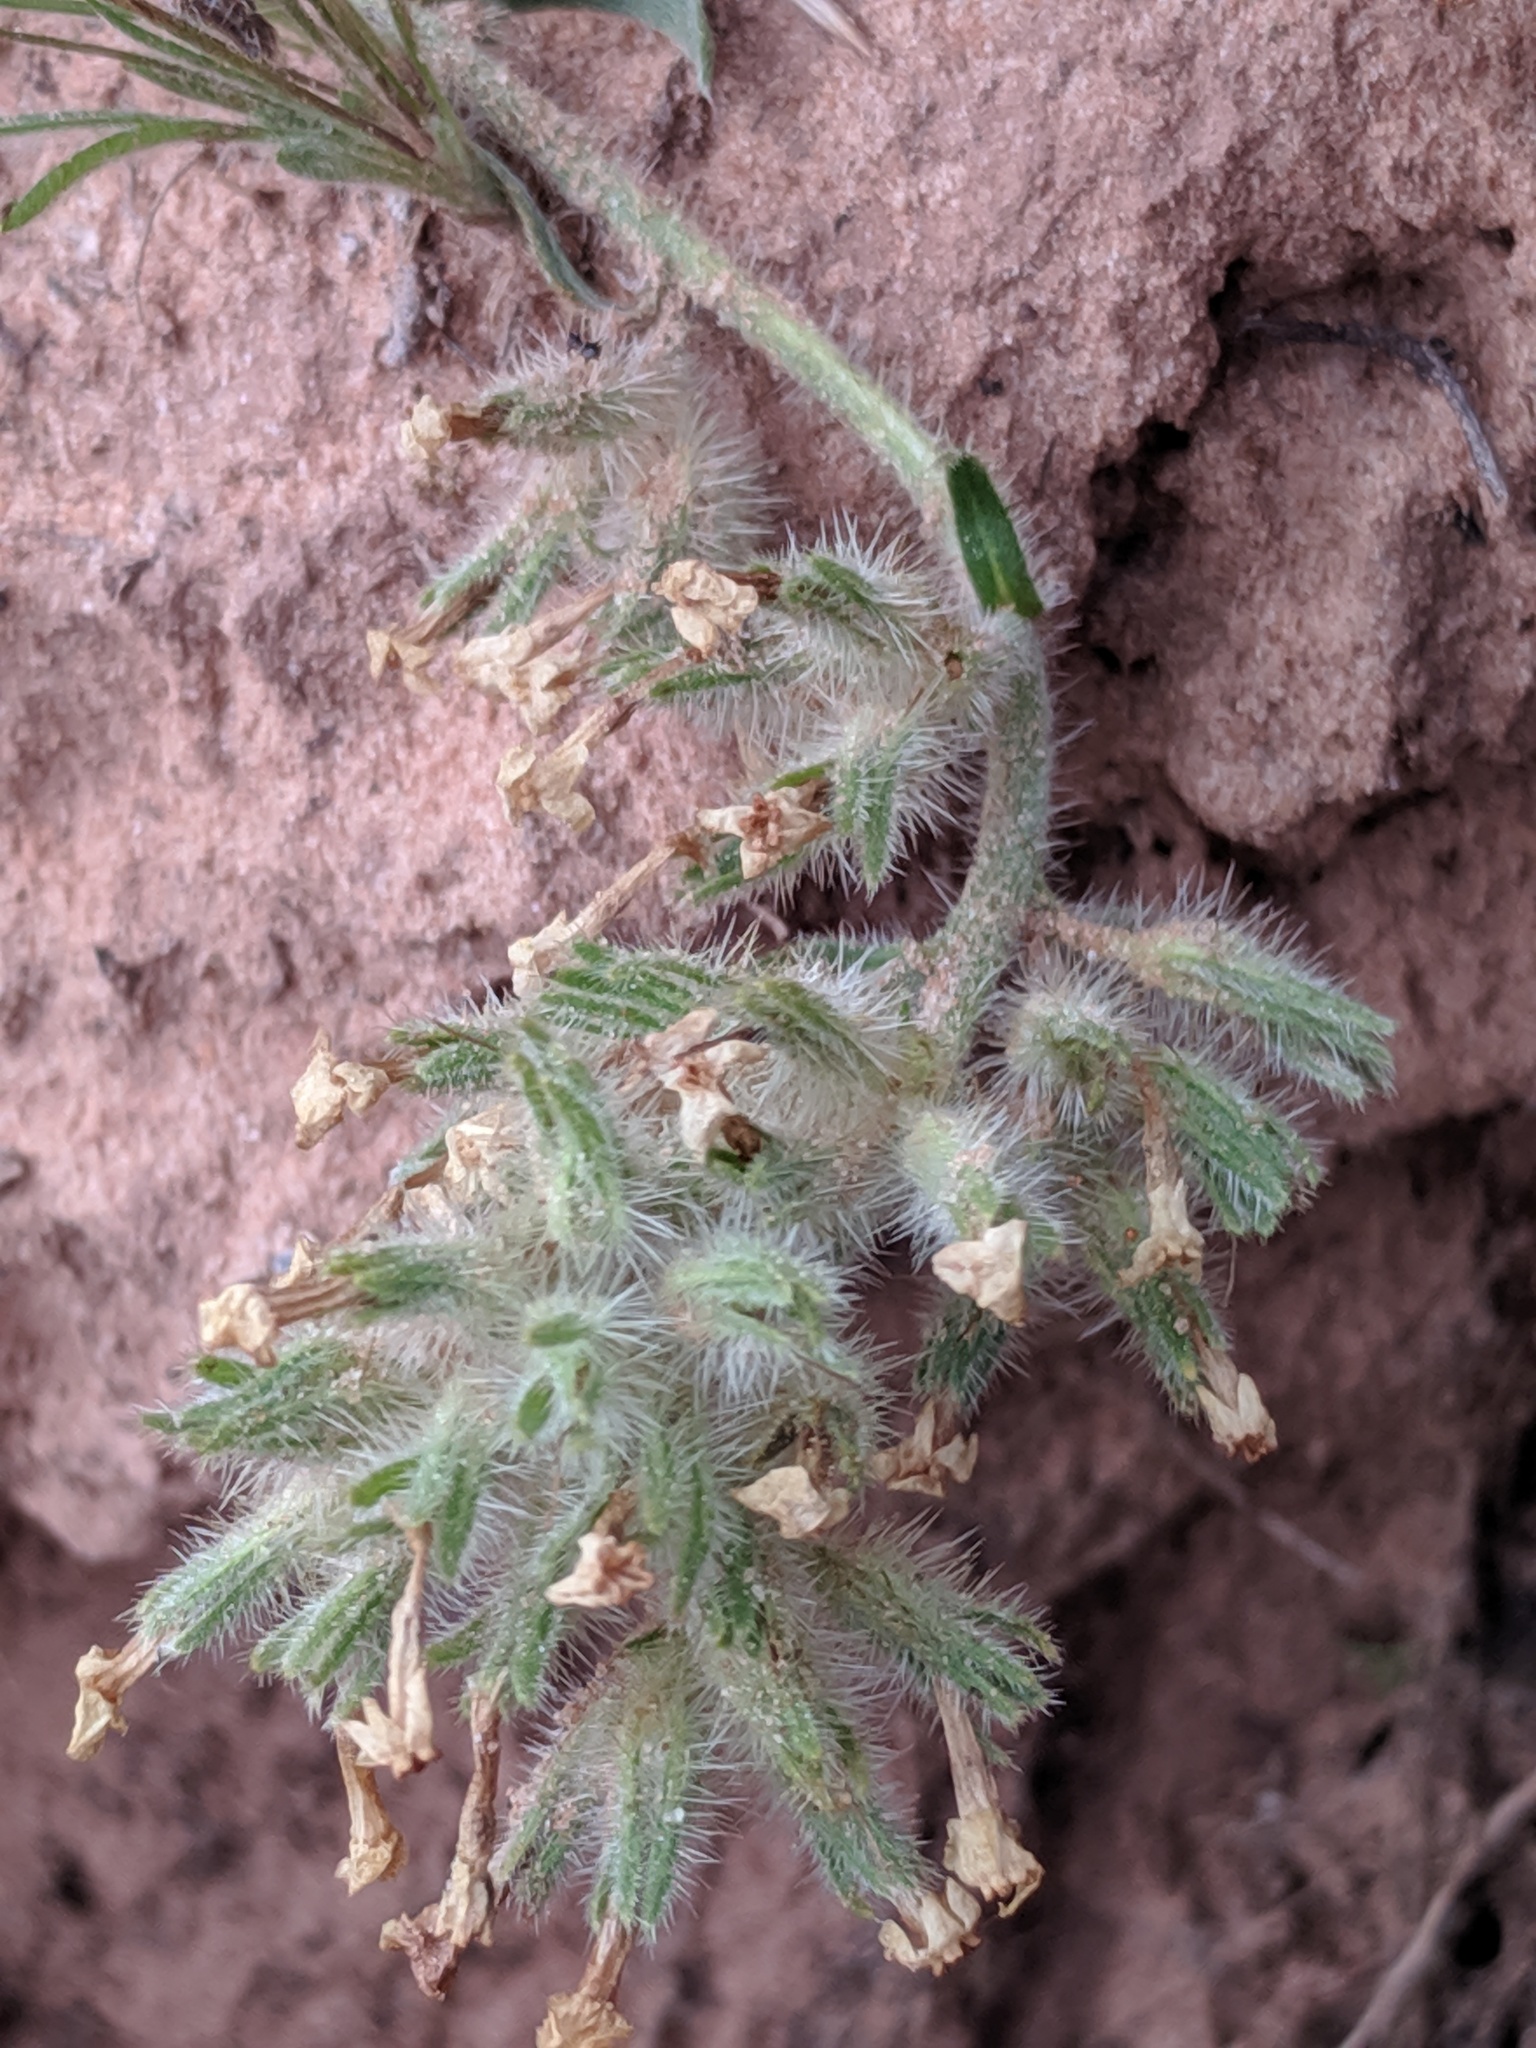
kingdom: Plantae
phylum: Tracheophyta
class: Magnoliopsida
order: Boraginales
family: Boraginaceae
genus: Oreocarya
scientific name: Oreocarya flava
